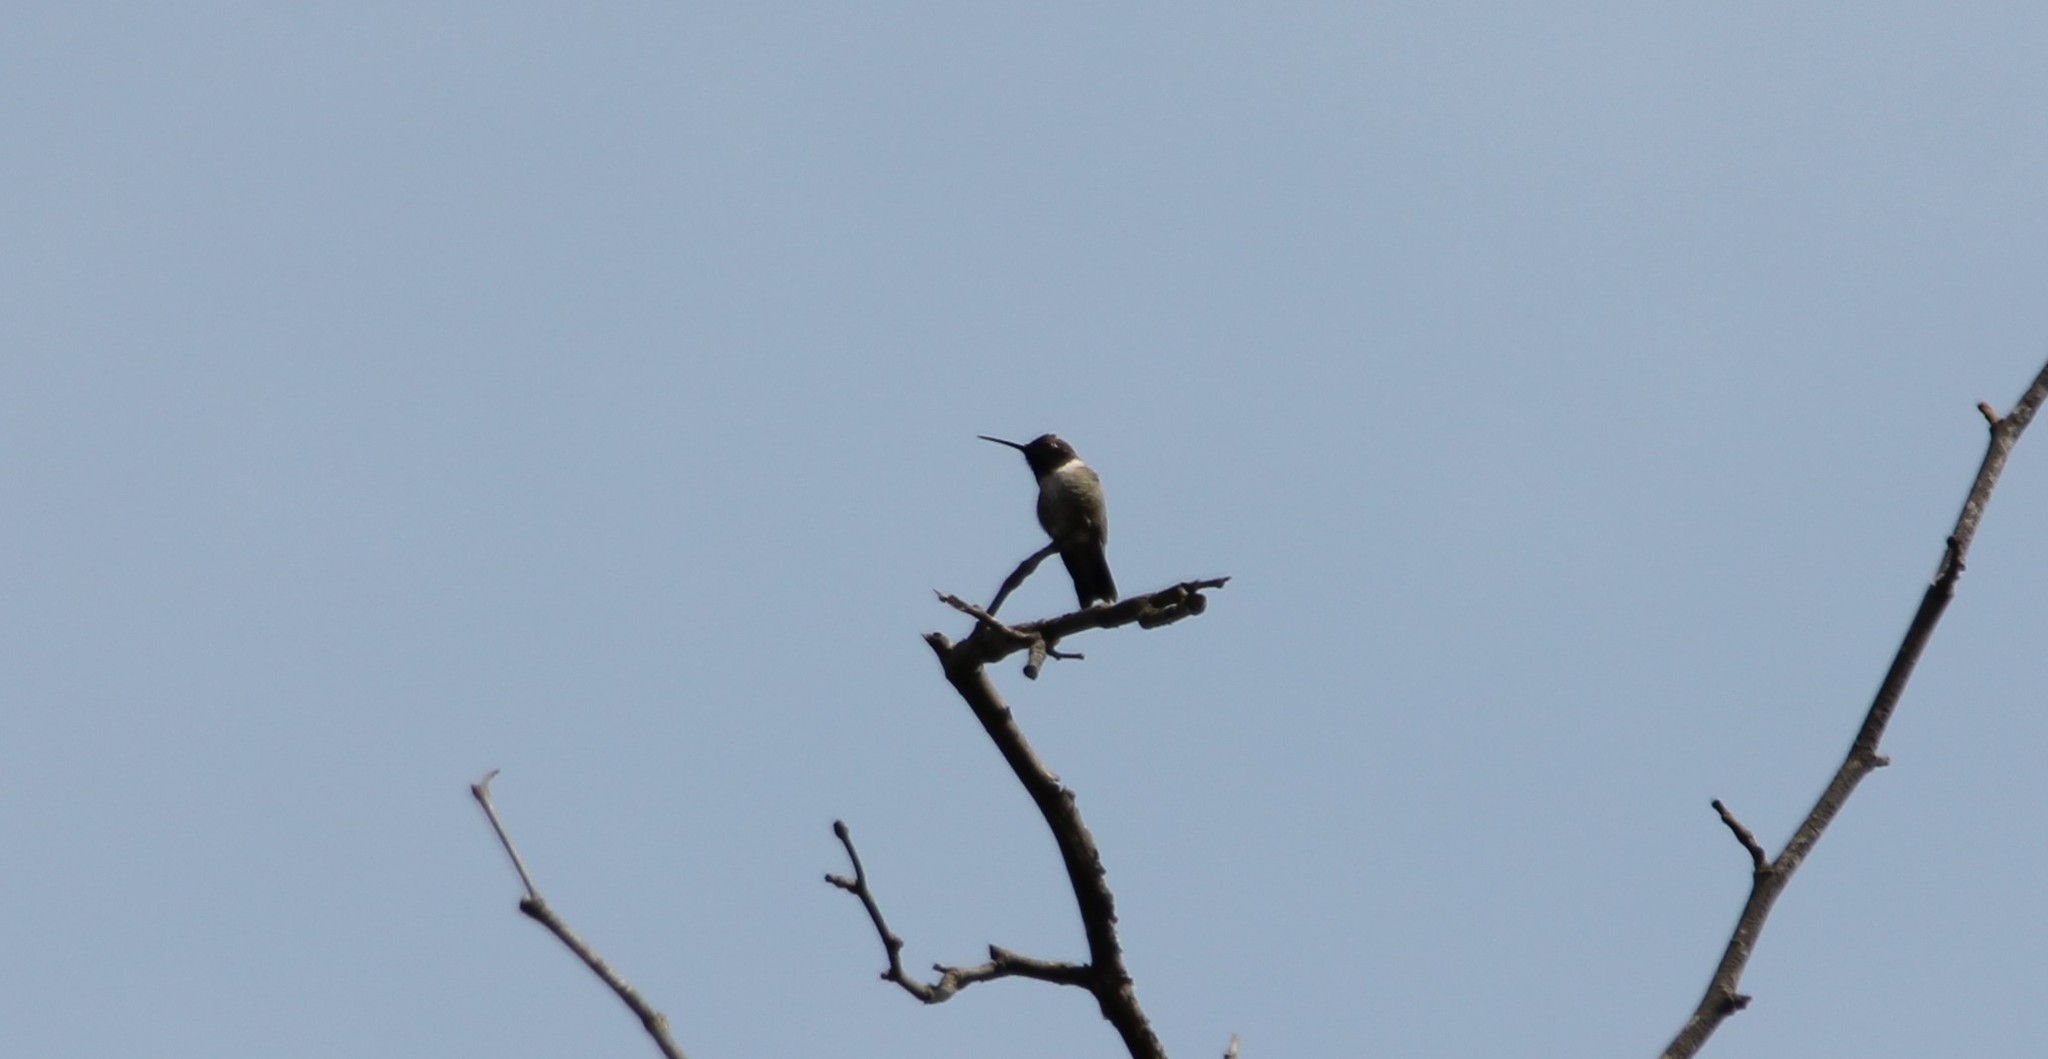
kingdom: Animalia
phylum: Chordata
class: Aves
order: Apodiformes
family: Trochilidae
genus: Archilochus
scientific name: Archilochus alexandri
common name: Black-chinned hummingbird
